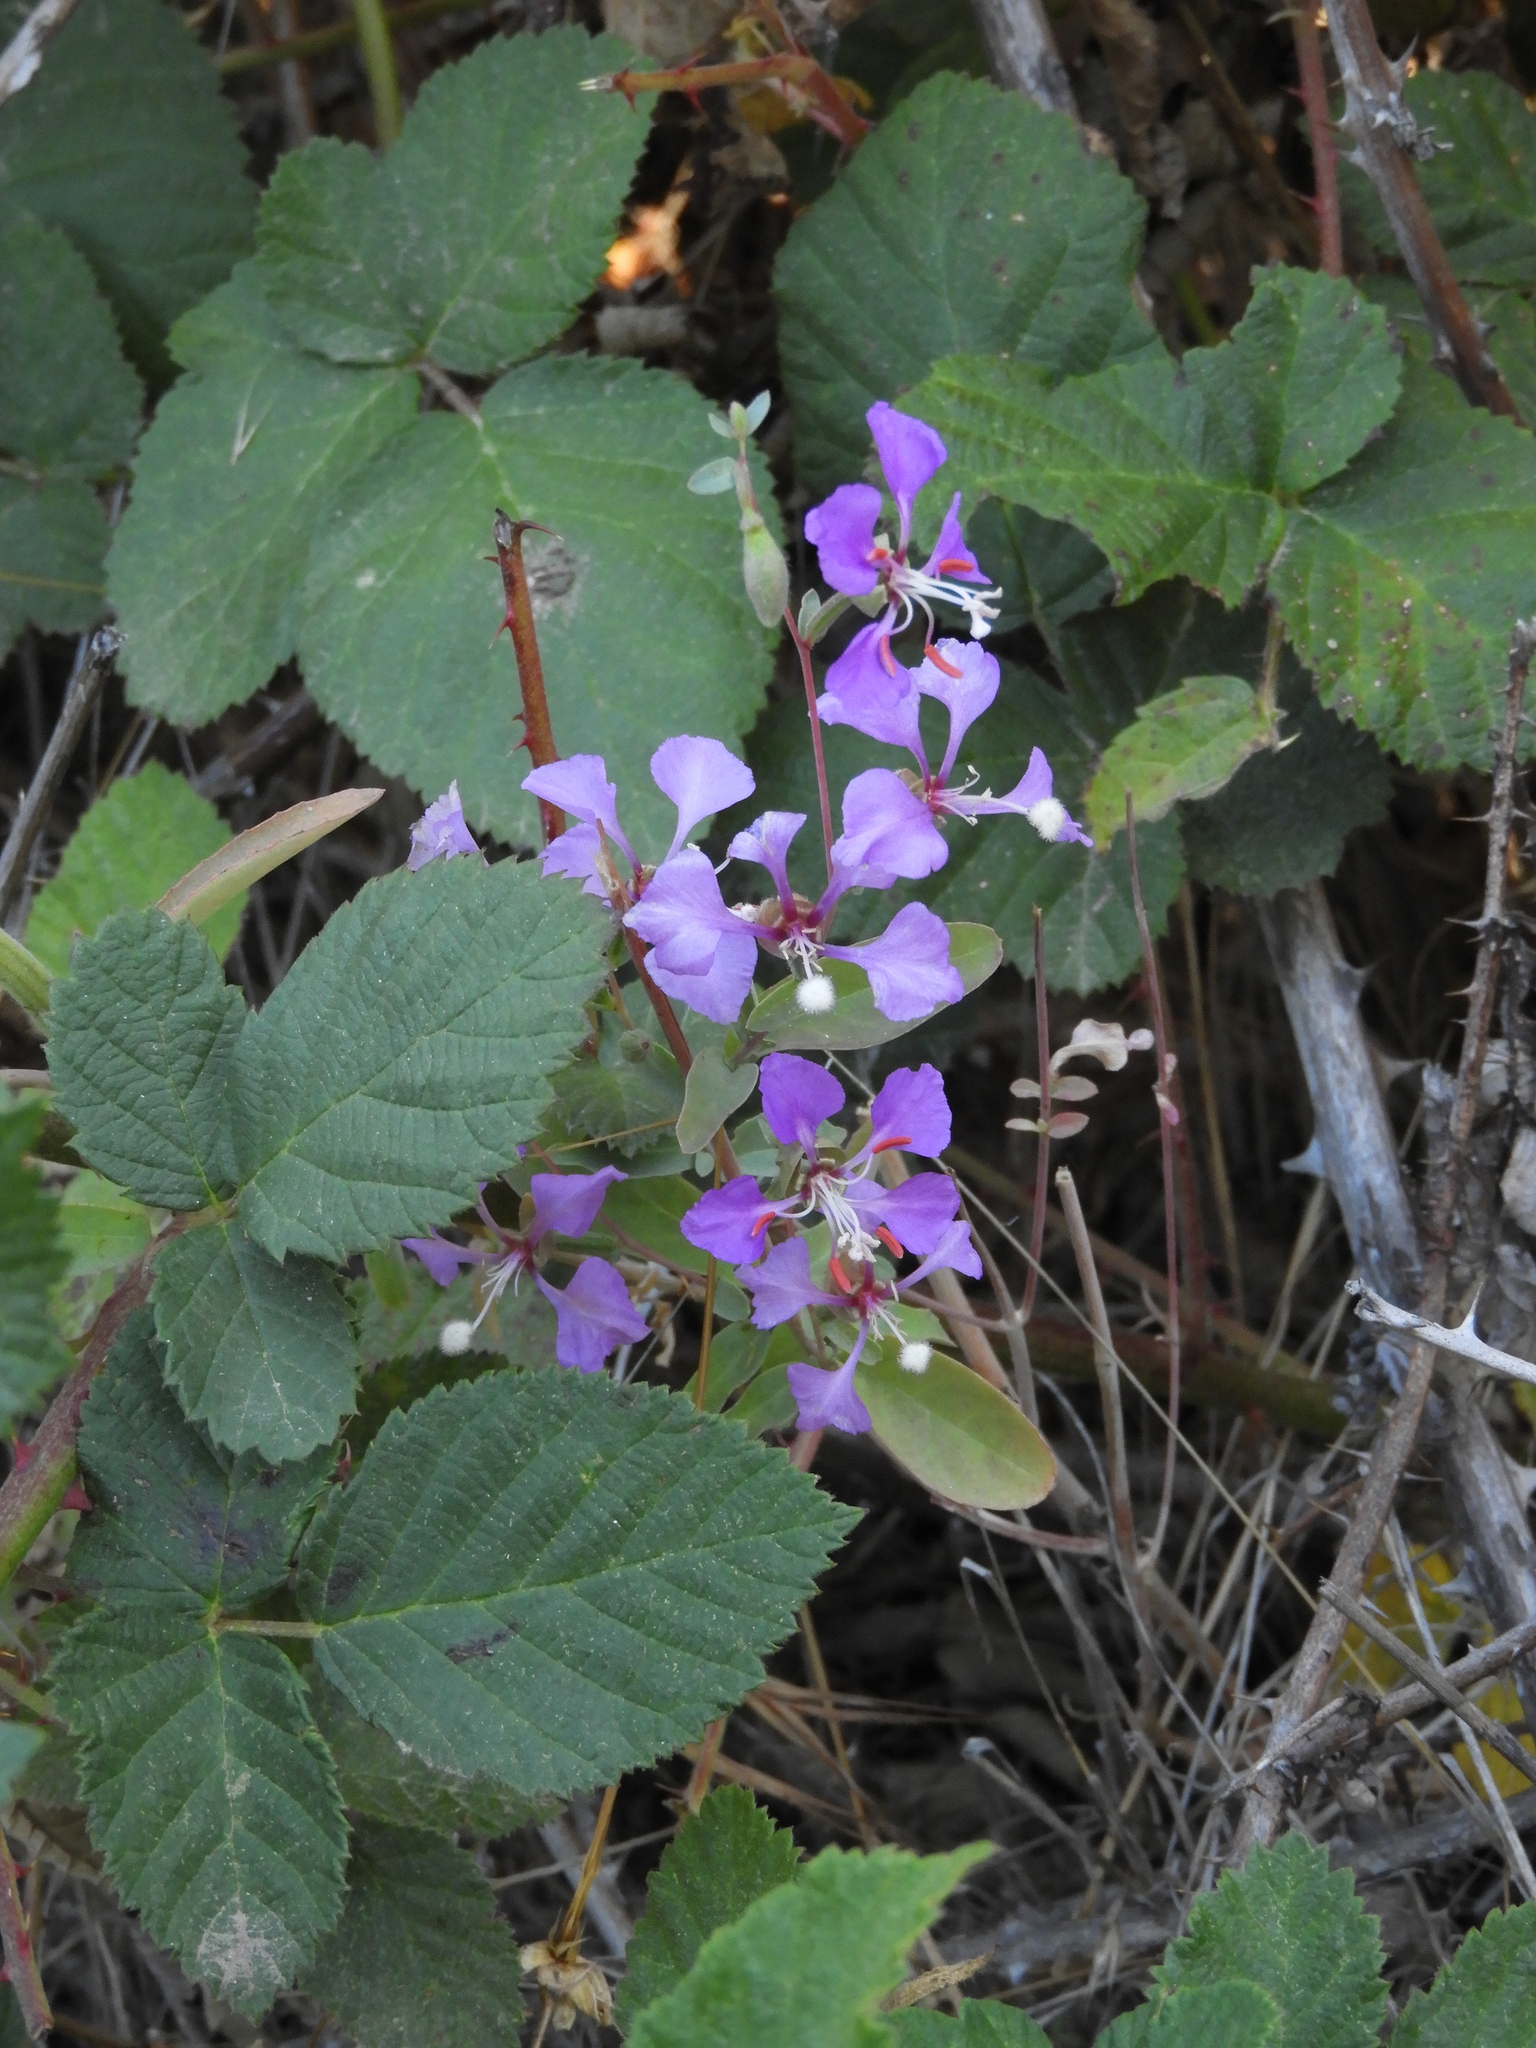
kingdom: Plantae
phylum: Tracheophyta
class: Magnoliopsida
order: Myrtales
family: Onagraceae
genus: Clarkia
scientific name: Clarkia unguiculata
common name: Clarkia
